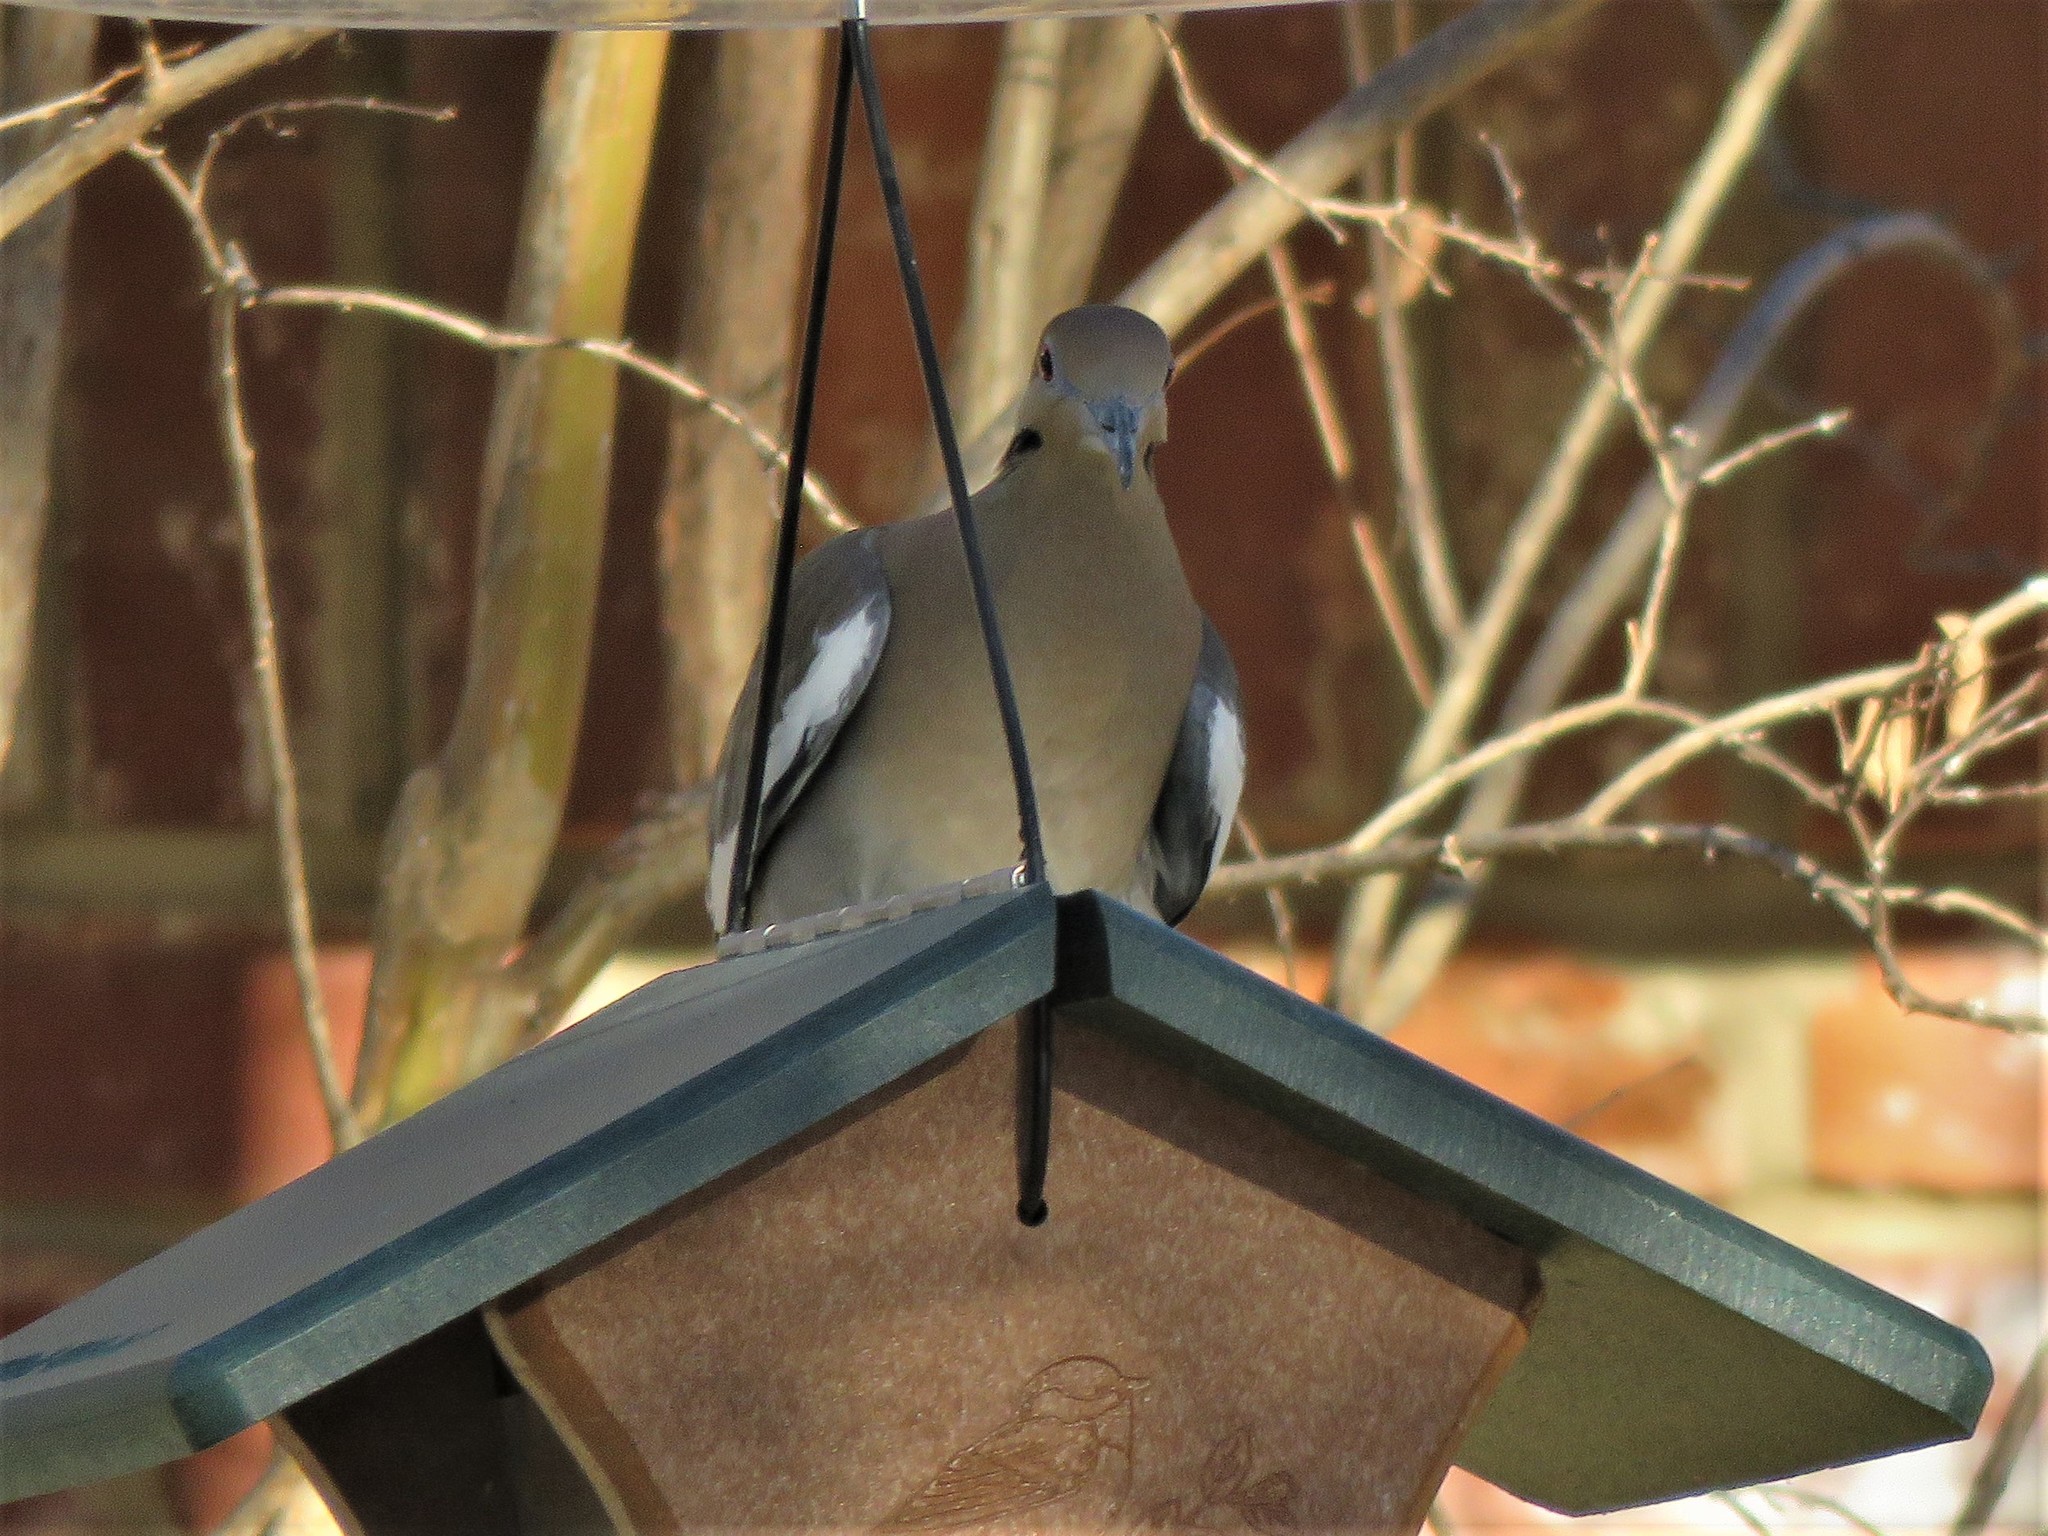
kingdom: Animalia
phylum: Chordata
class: Aves
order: Columbiformes
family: Columbidae
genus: Zenaida
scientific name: Zenaida asiatica
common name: White-winged dove
